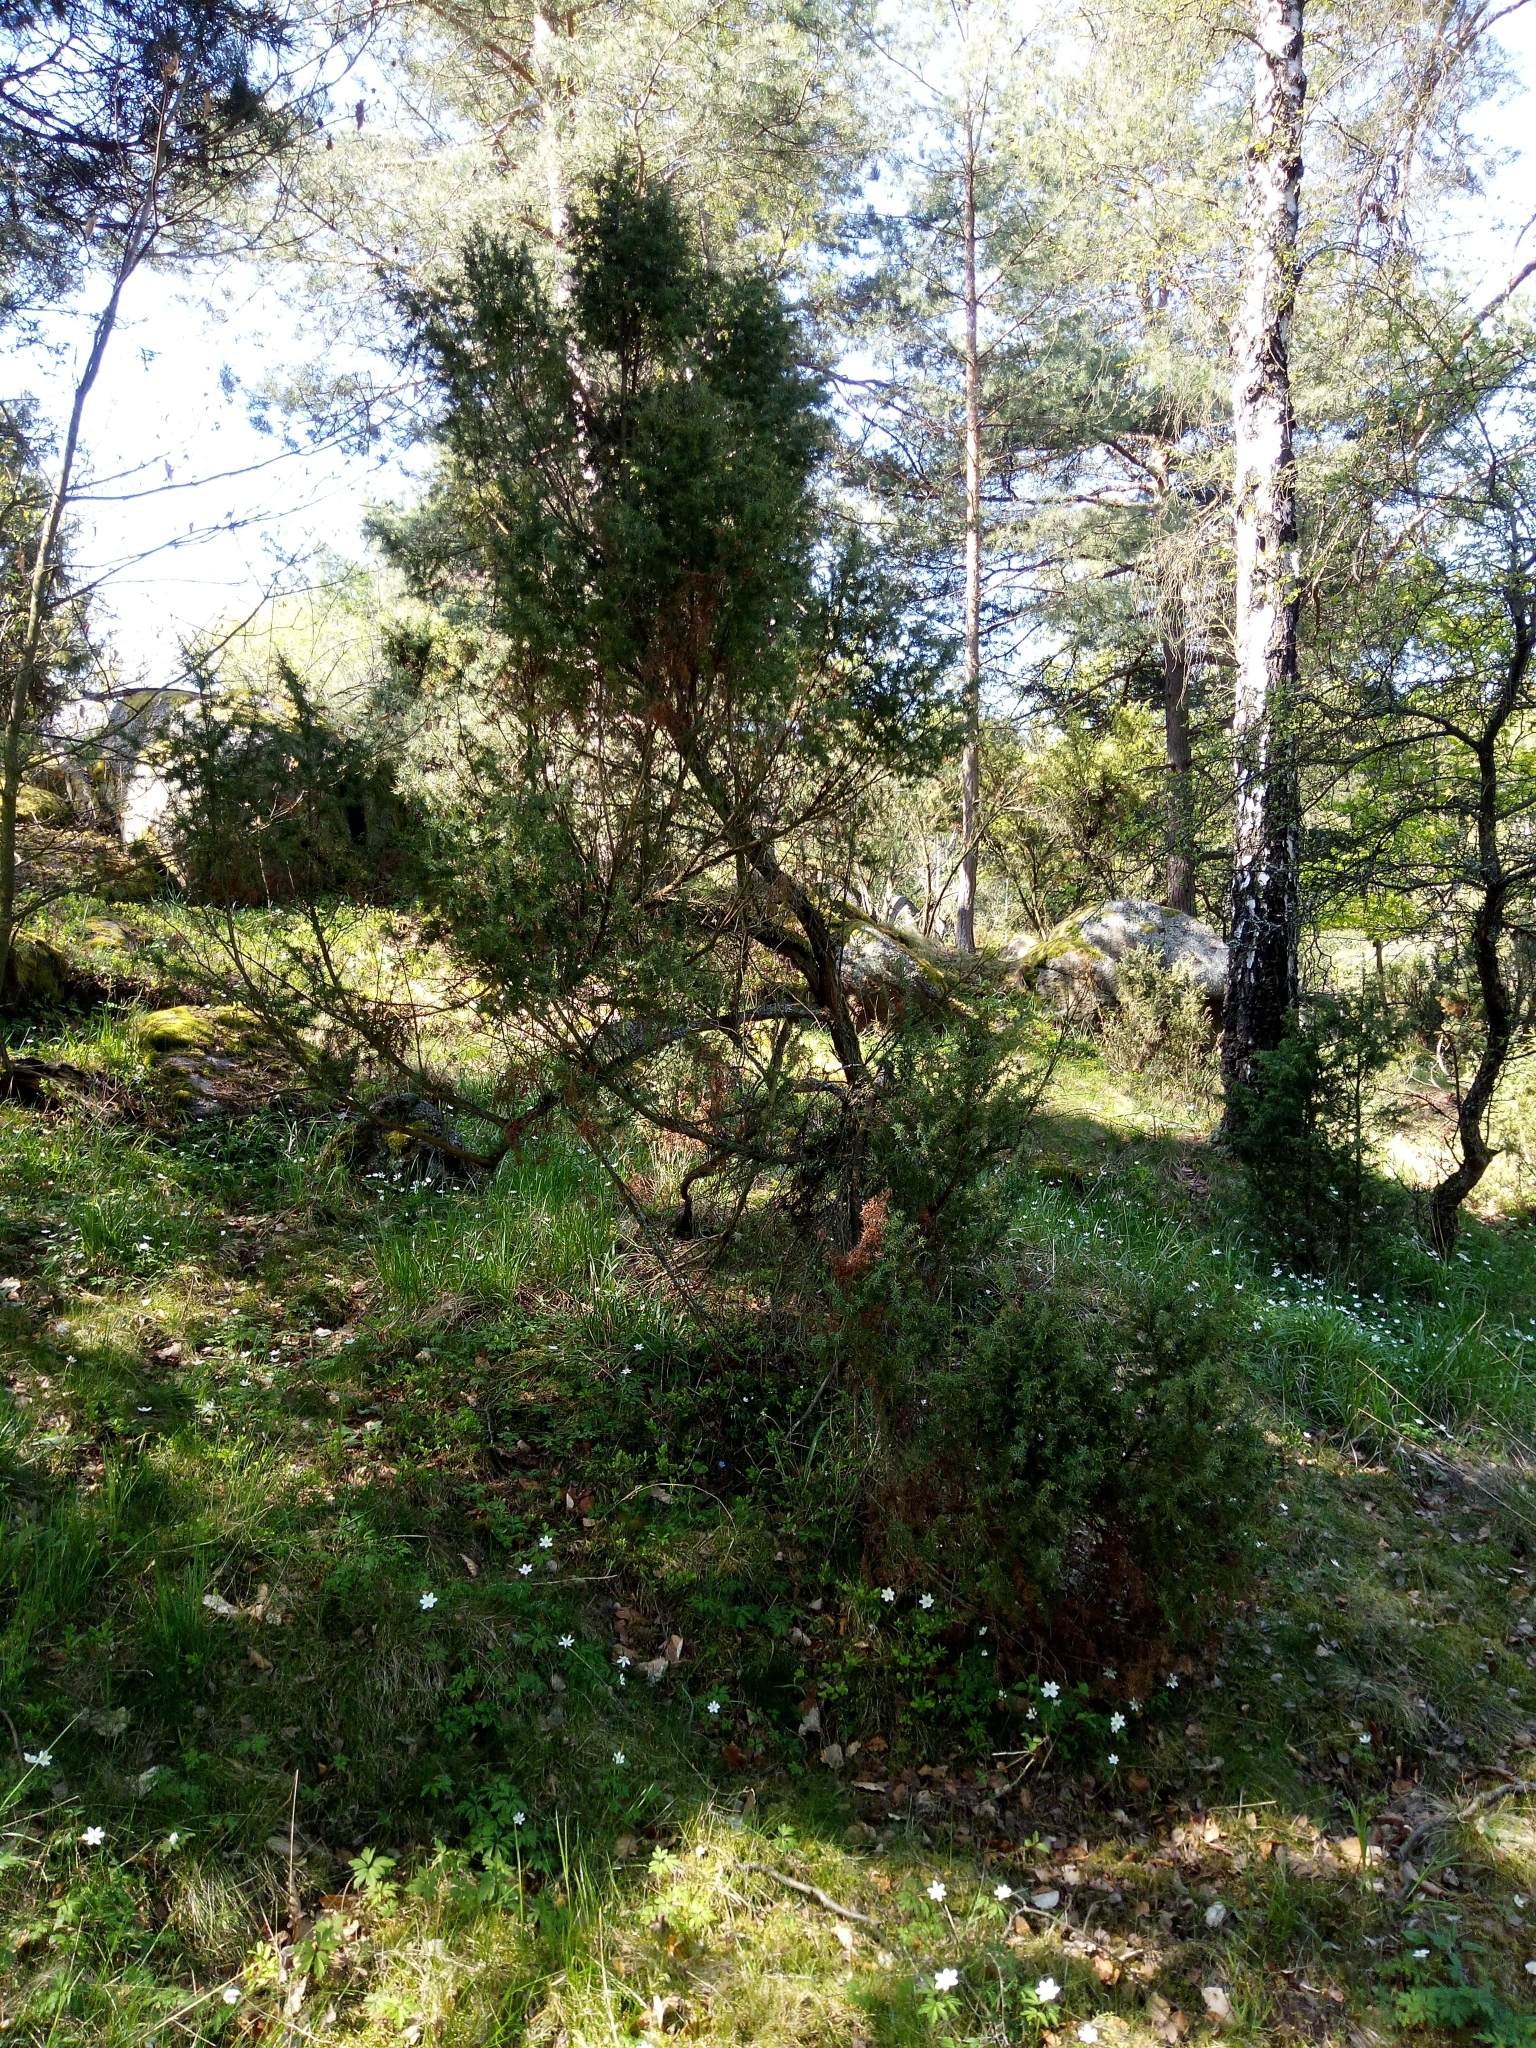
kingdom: Plantae
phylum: Tracheophyta
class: Pinopsida
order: Pinales
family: Cupressaceae
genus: Juniperus
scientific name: Juniperus communis
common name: Common juniper
